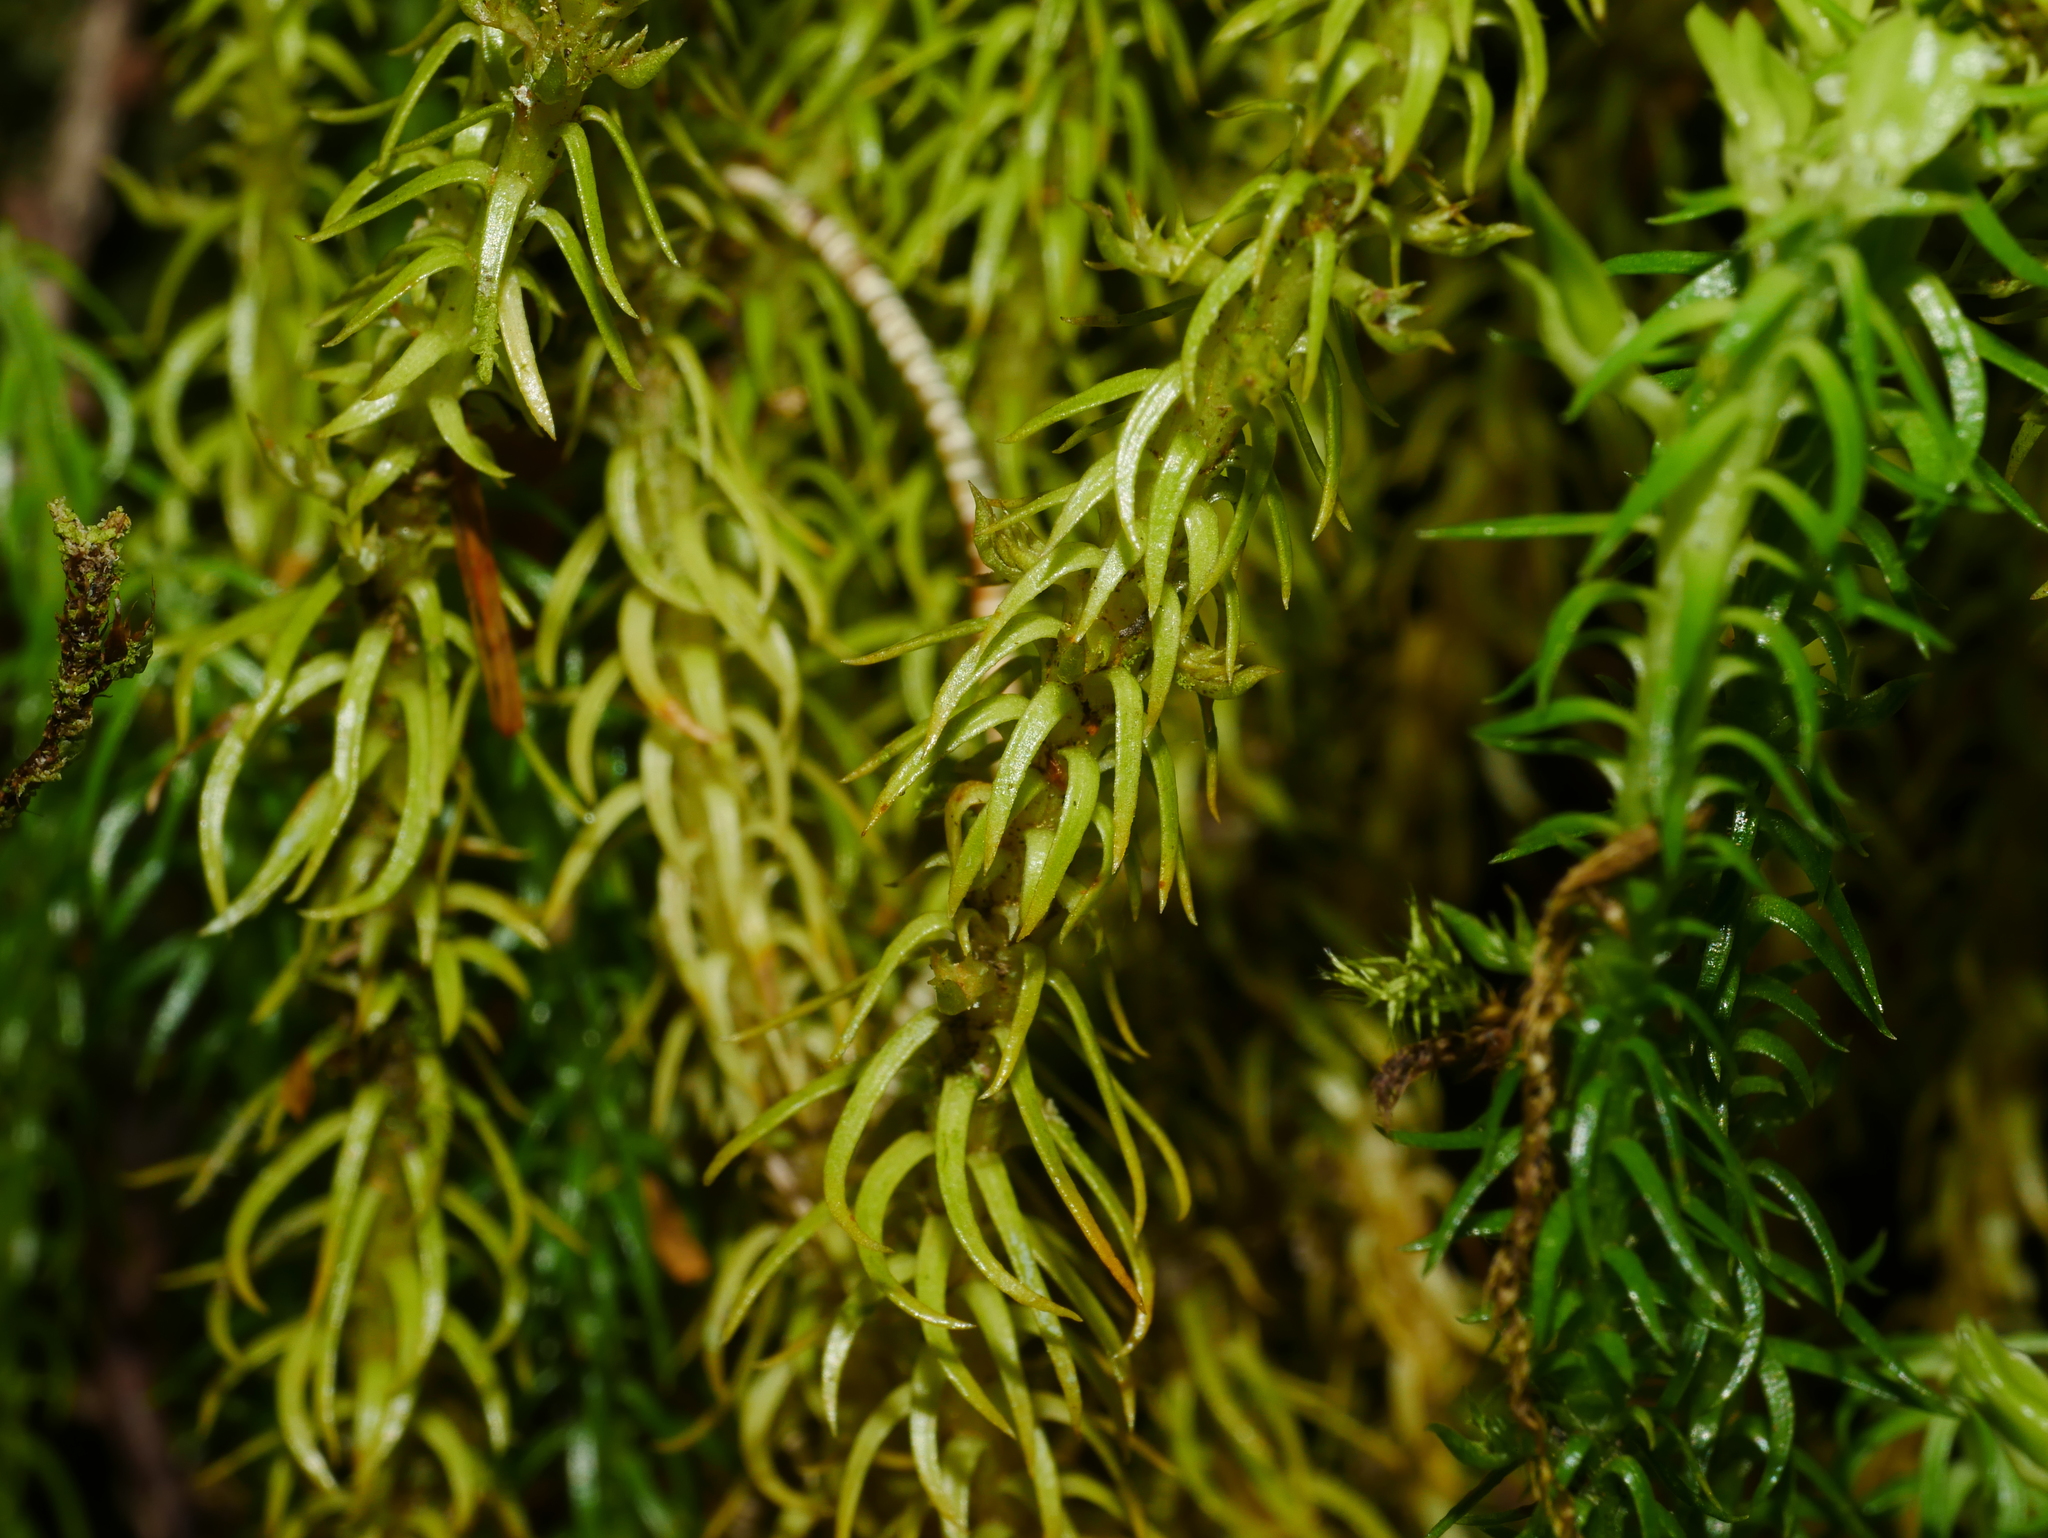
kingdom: Plantae
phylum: Tracheophyta
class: Lycopodiopsida
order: Lycopodiales
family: Lycopodiaceae
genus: Huperzia
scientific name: Huperzia quasipolytrichoides
